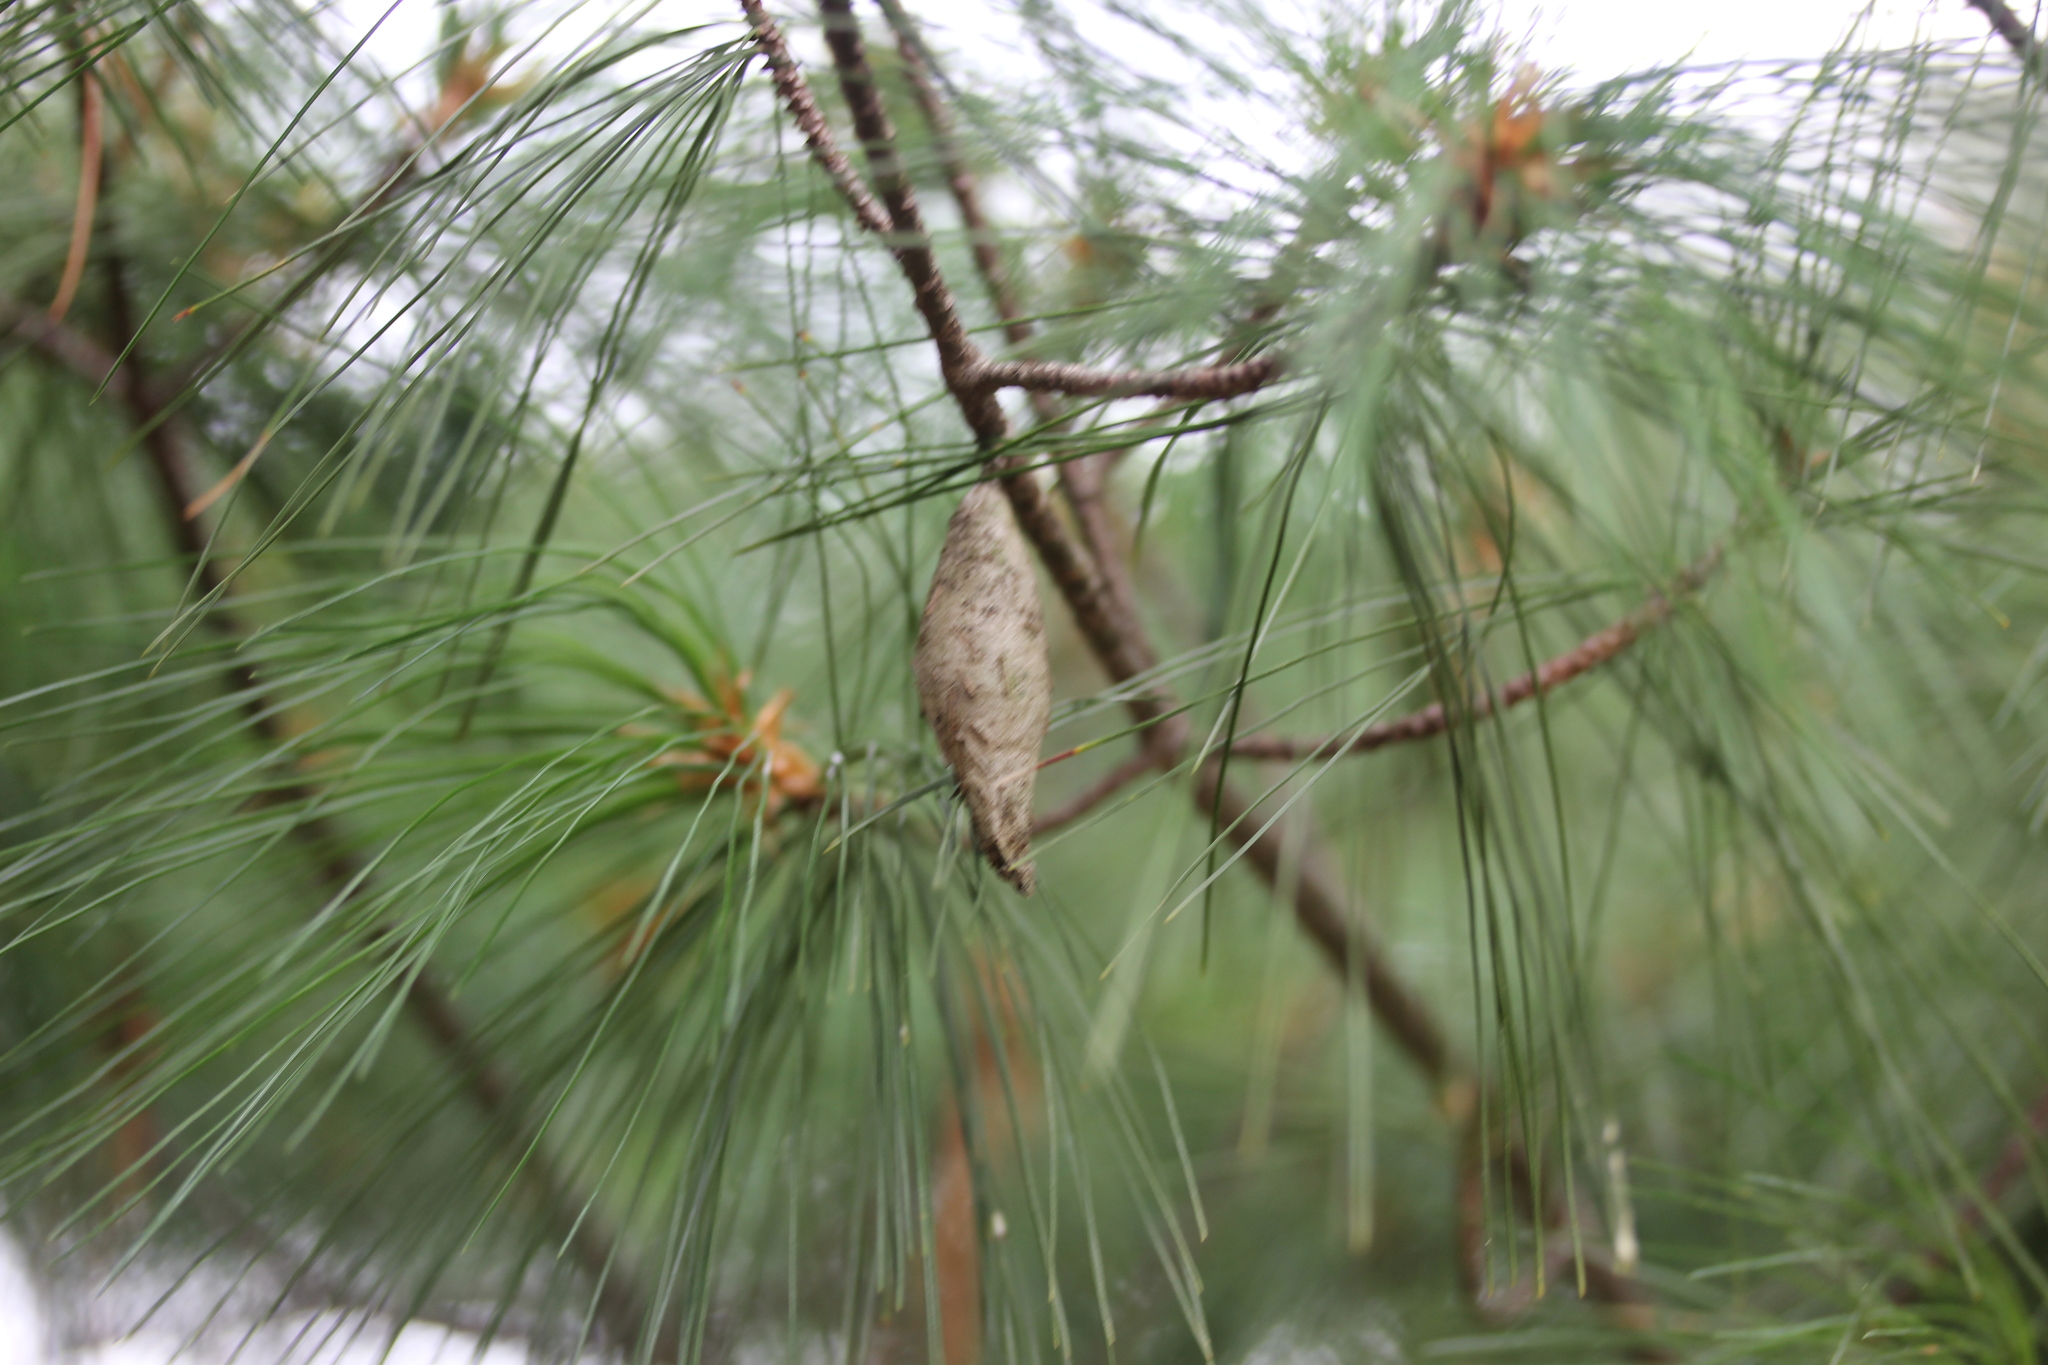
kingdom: Animalia
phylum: Arthropoda
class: Insecta
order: Lepidoptera
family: Psychidae
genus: Thyridopteryx
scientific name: Thyridopteryx ephemeraeformis
